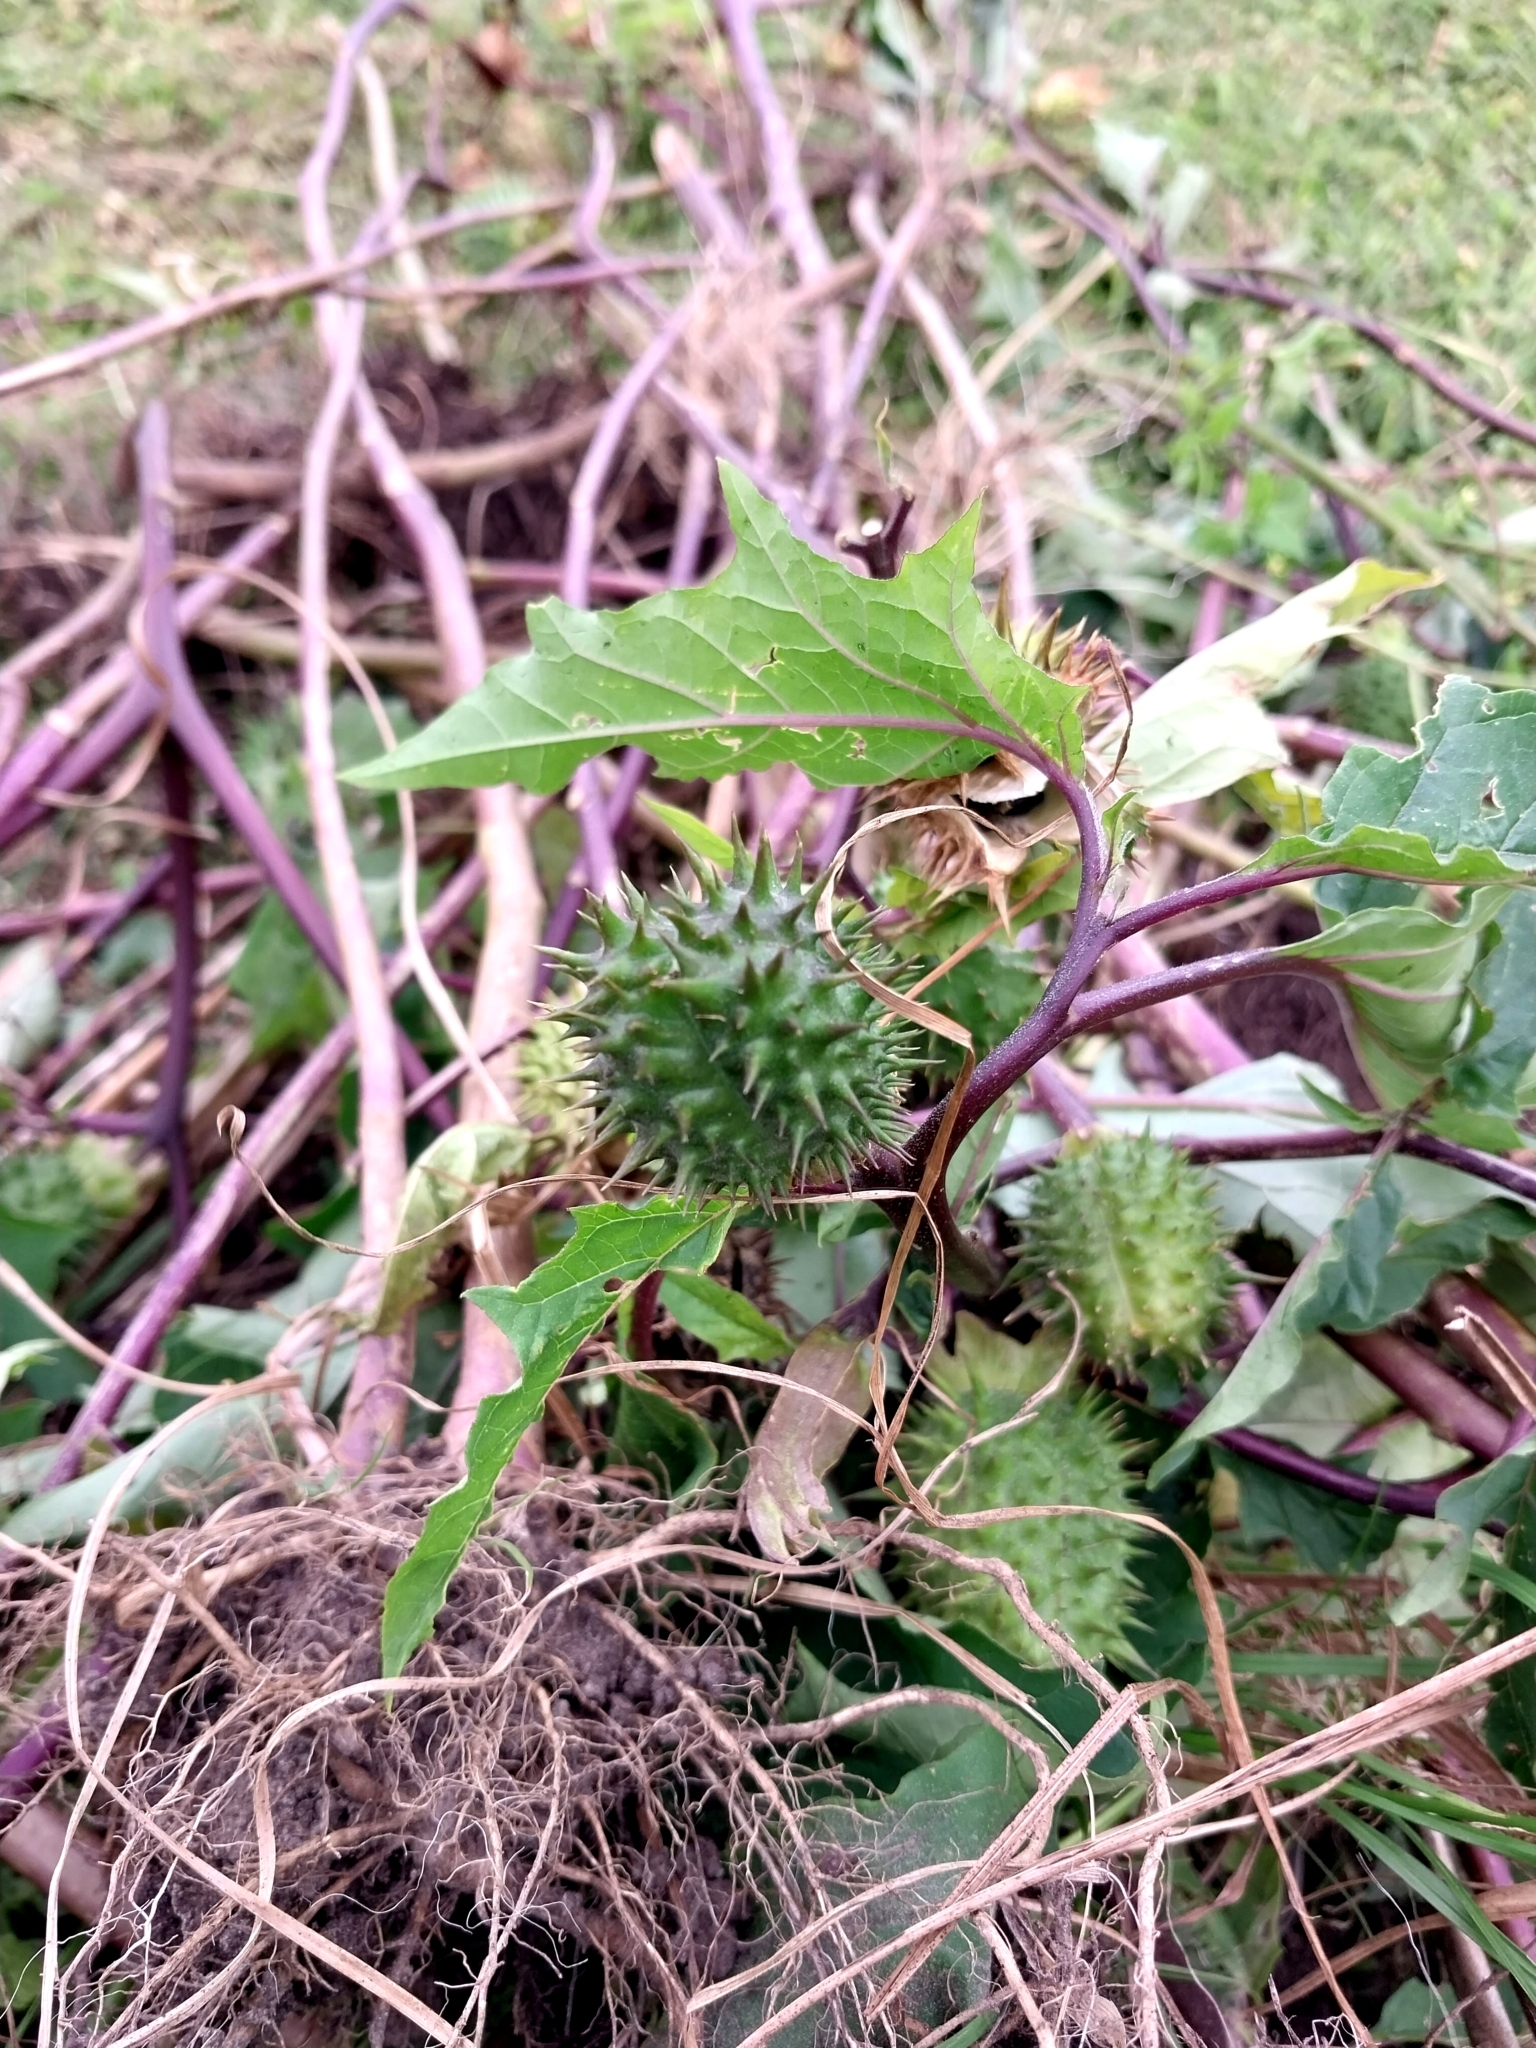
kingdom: Plantae
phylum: Tracheophyta
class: Magnoliopsida
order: Solanales
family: Solanaceae
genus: Datura
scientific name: Datura stramonium
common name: Thorn-apple
